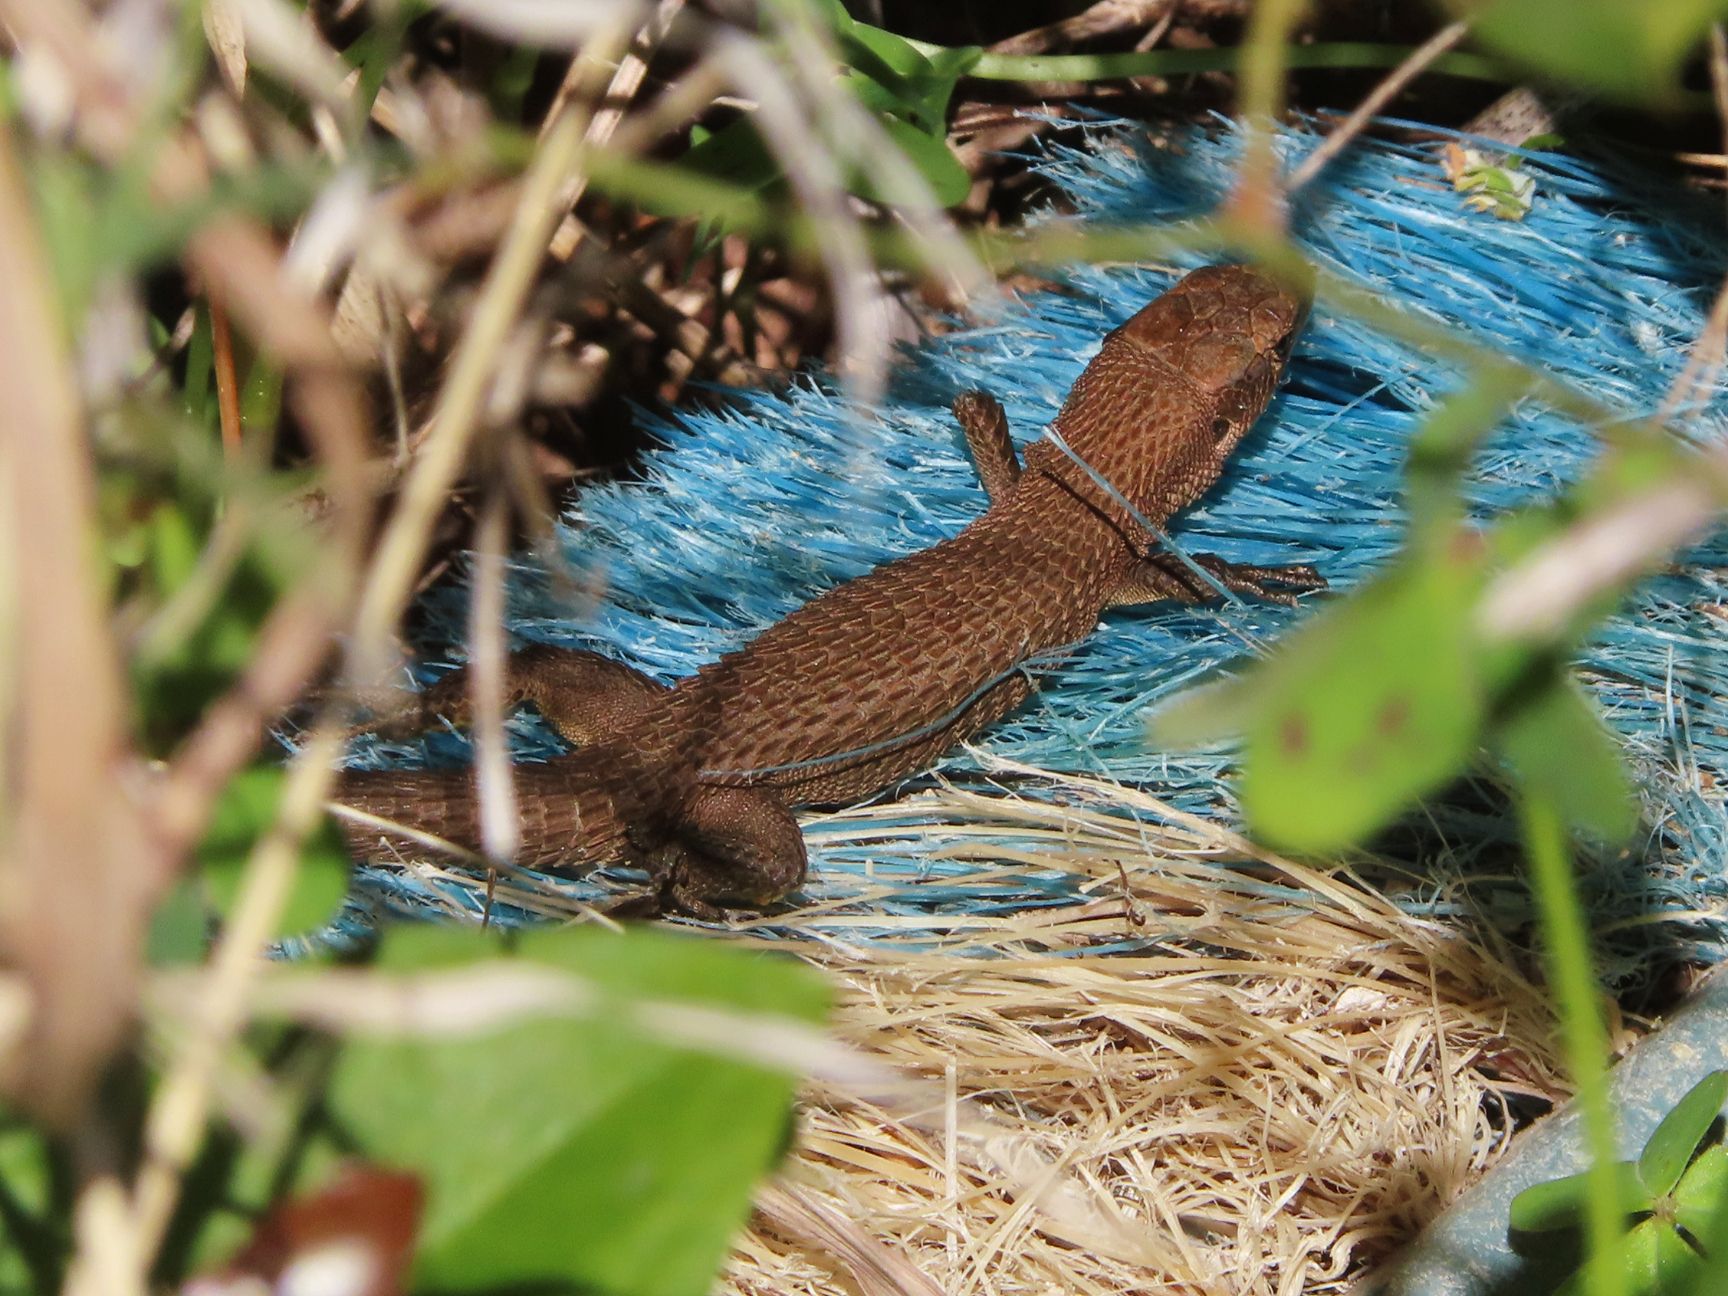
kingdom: Animalia
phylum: Chordata
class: Squamata
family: Lacertidae
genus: Algyroides
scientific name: Algyroides moreoticus
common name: Greek algyroides
